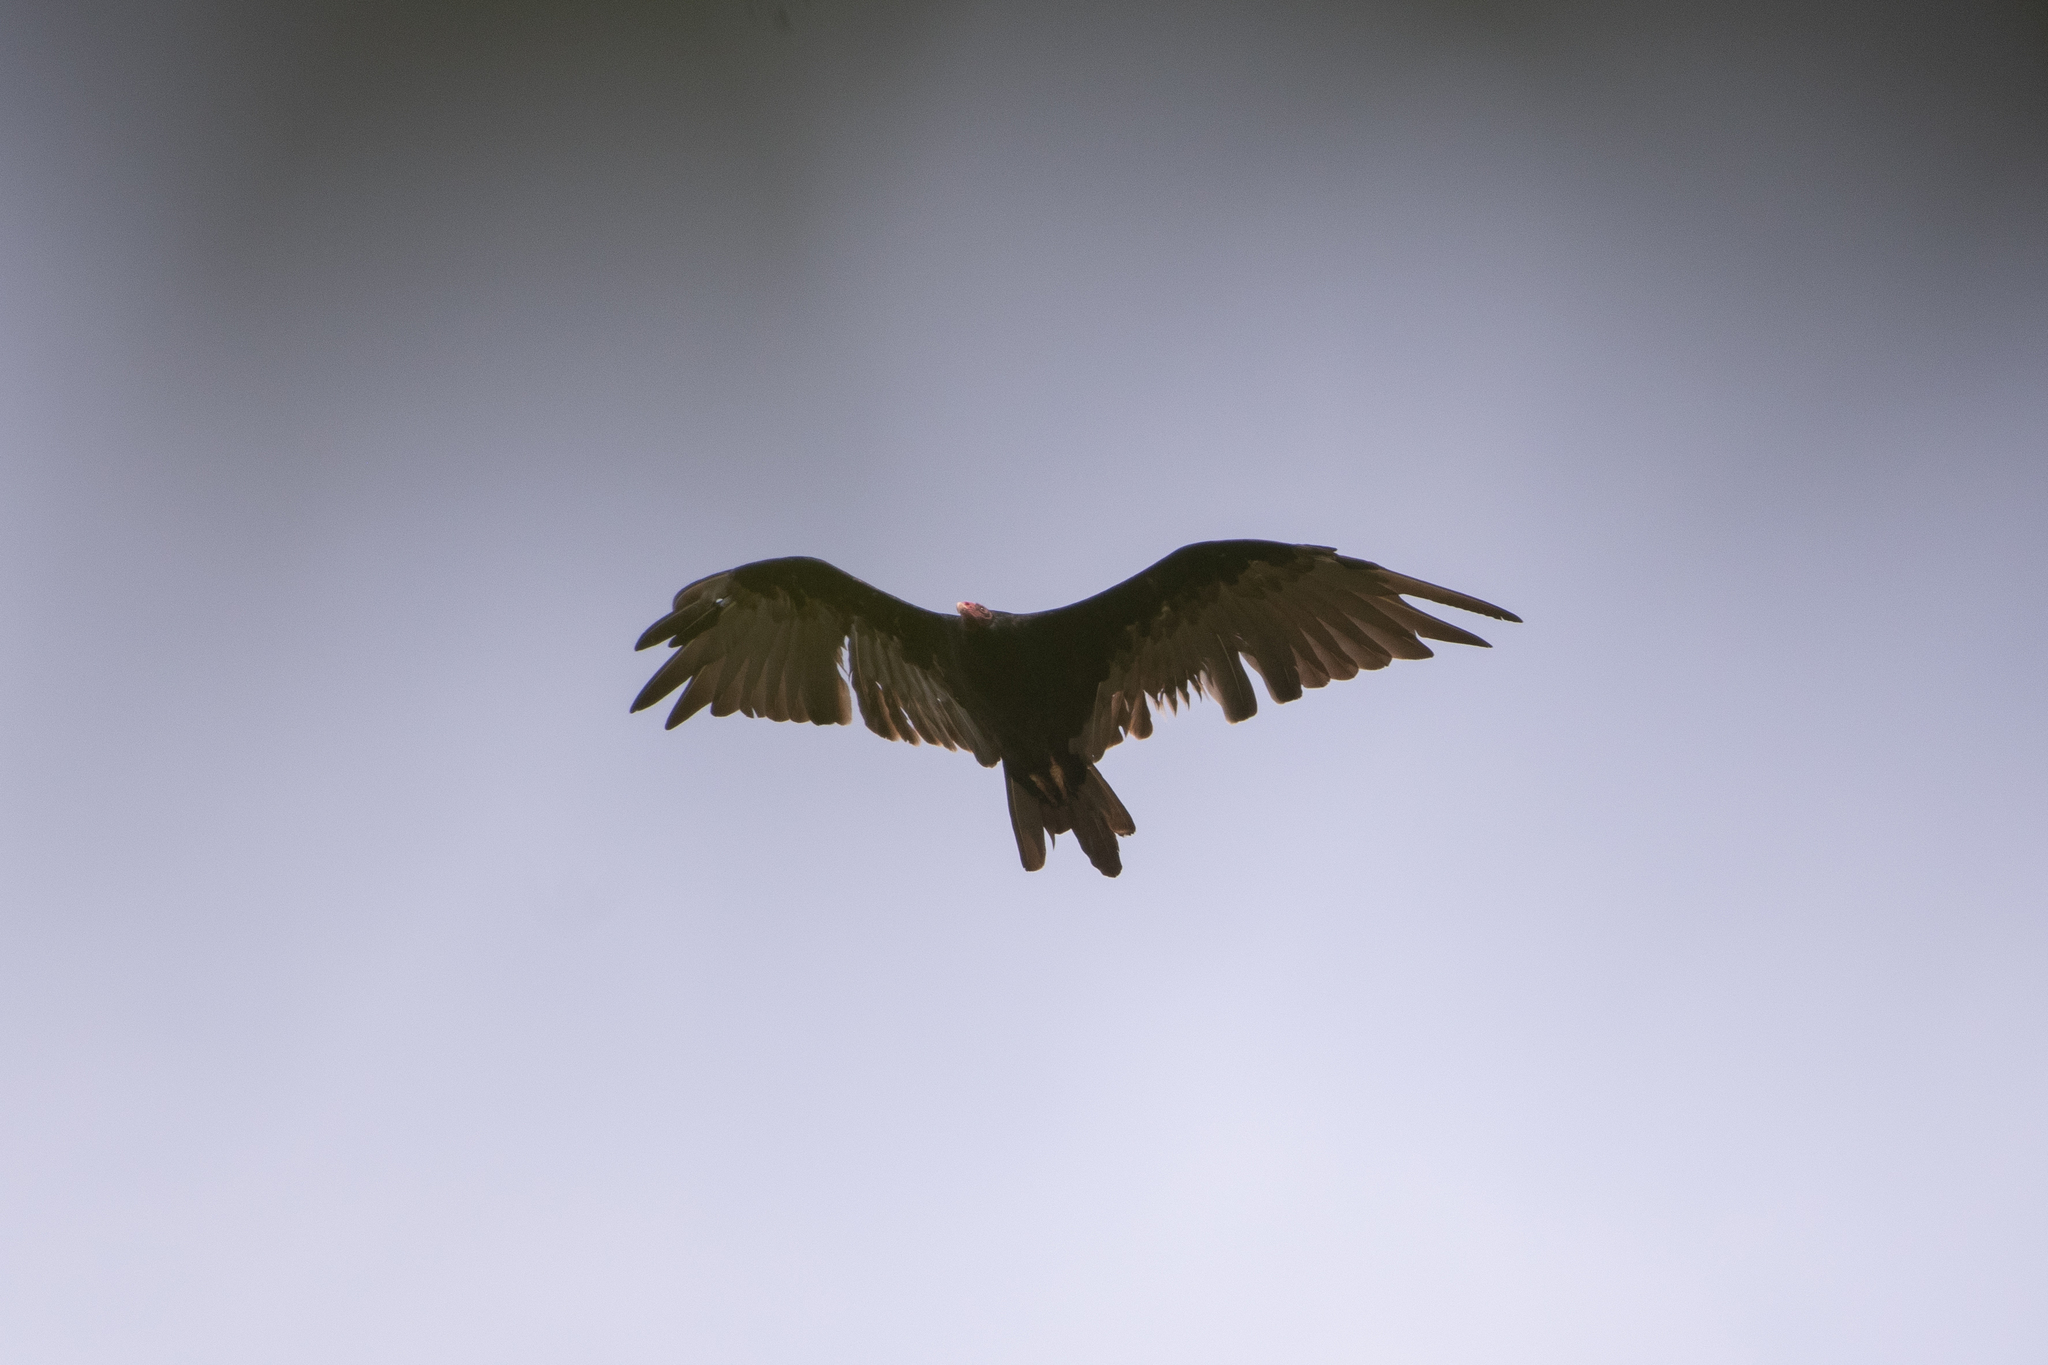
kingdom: Animalia
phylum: Chordata
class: Aves
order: Accipitriformes
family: Cathartidae
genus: Cathartes
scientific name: Cathartes aura
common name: Turkey vulture
